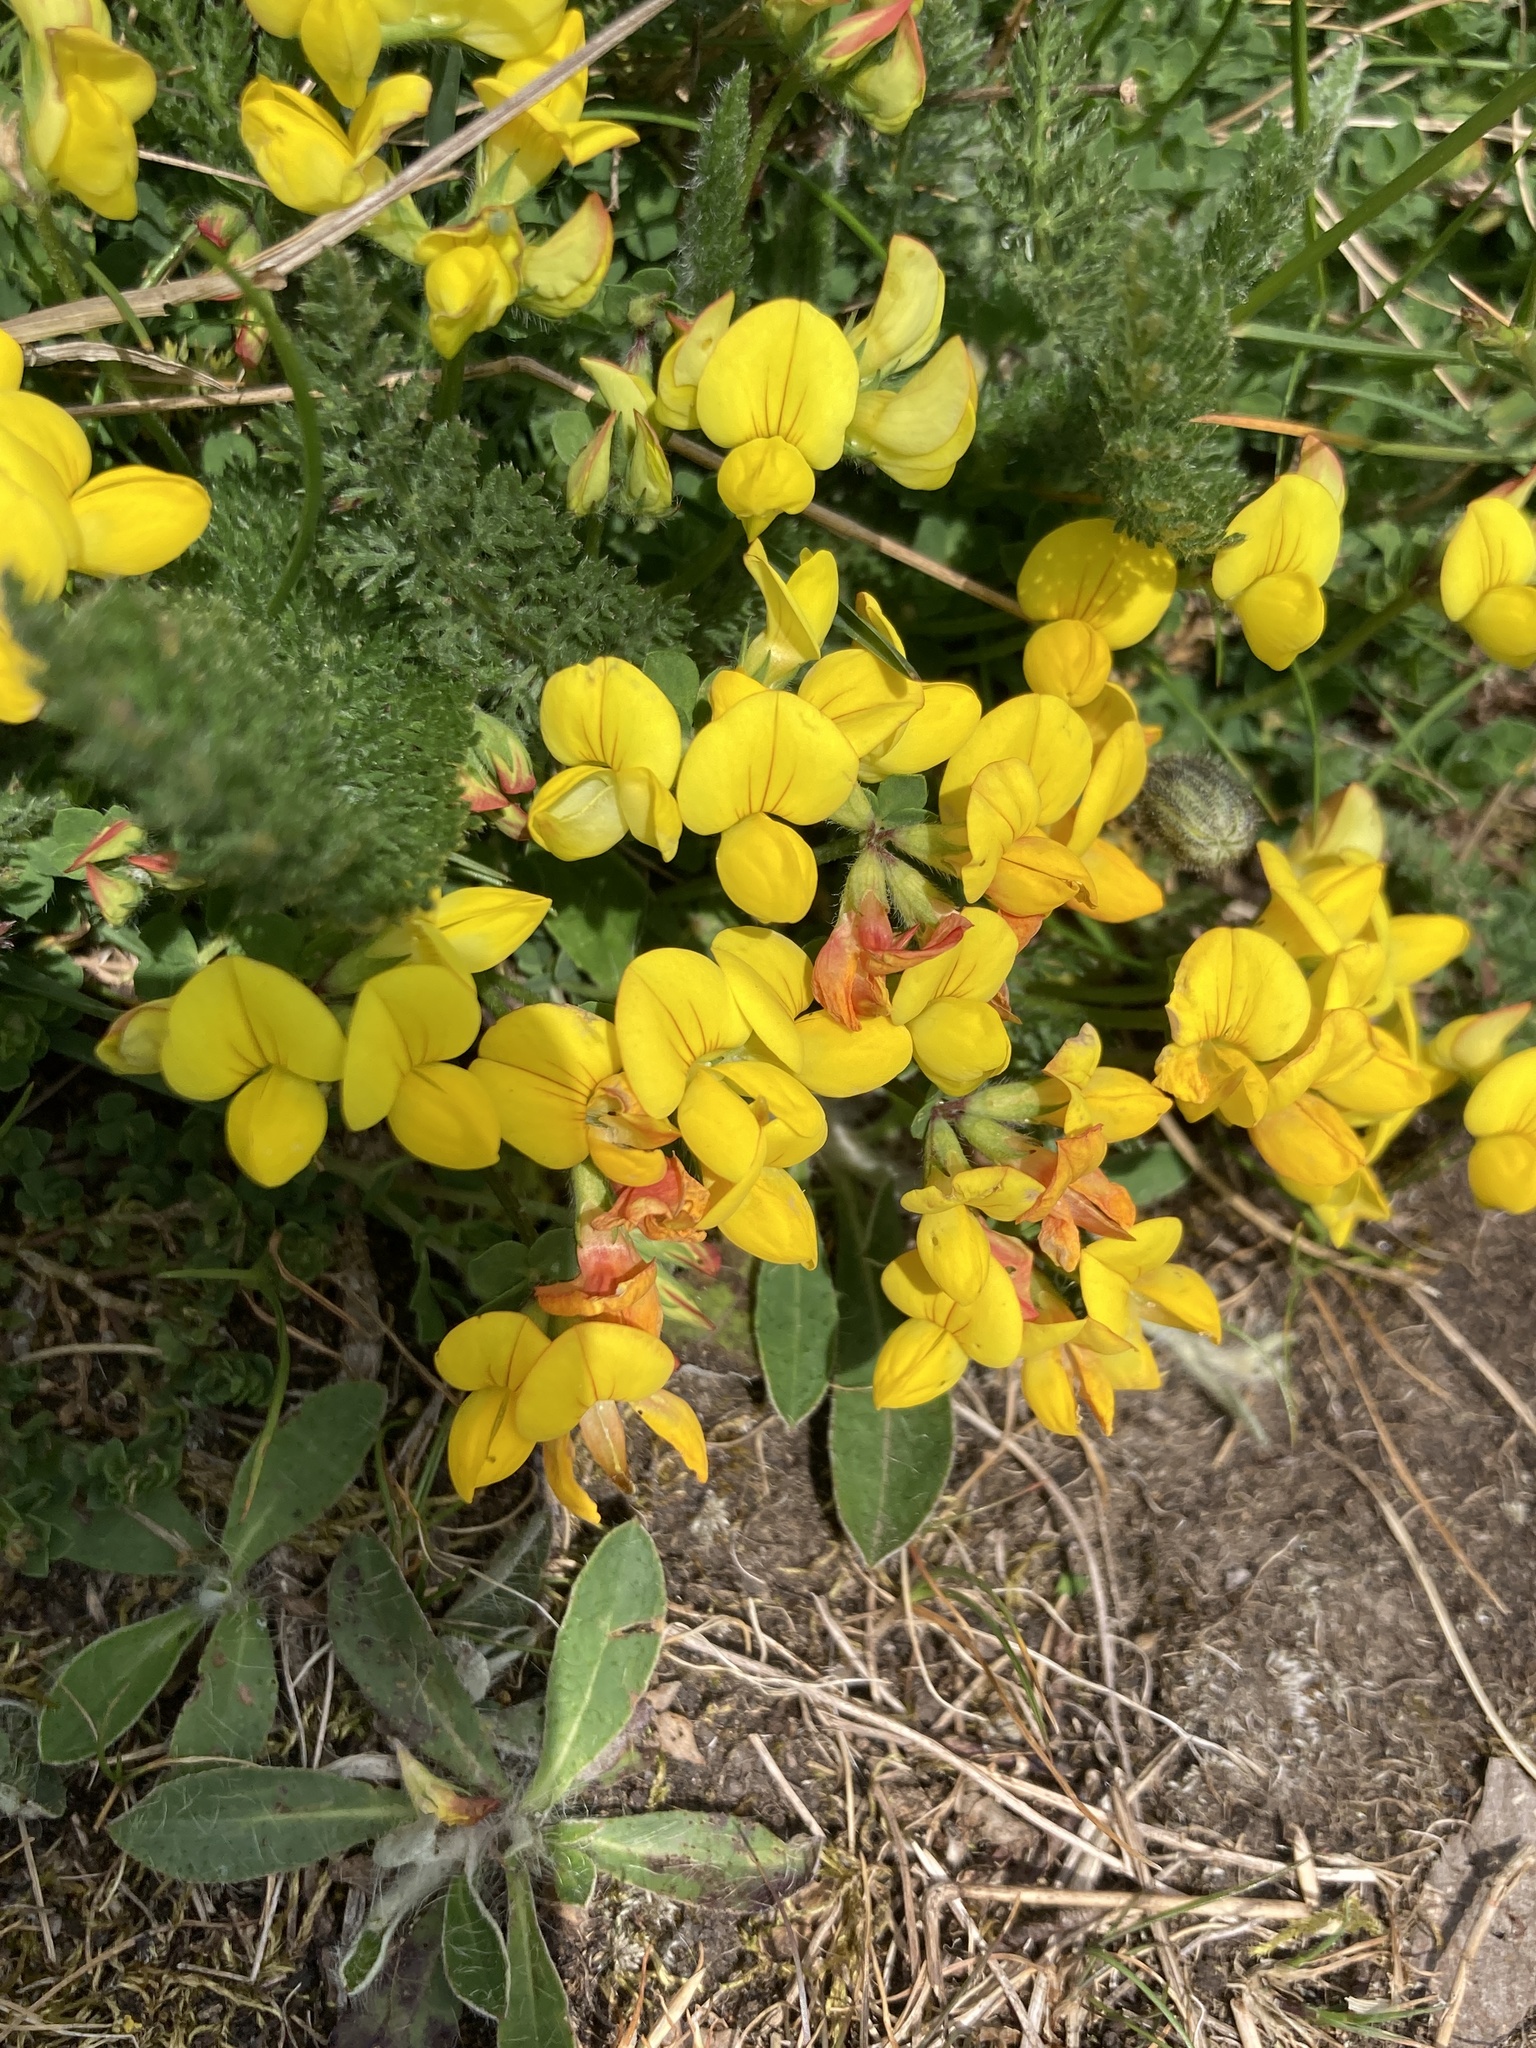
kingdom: Plantae
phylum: Tracheophyta
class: Magnoliopsida
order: Fabales
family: Fabaceae
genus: Lotus
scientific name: Lotus corniculatus
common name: Common bird's-foot-trefoil
